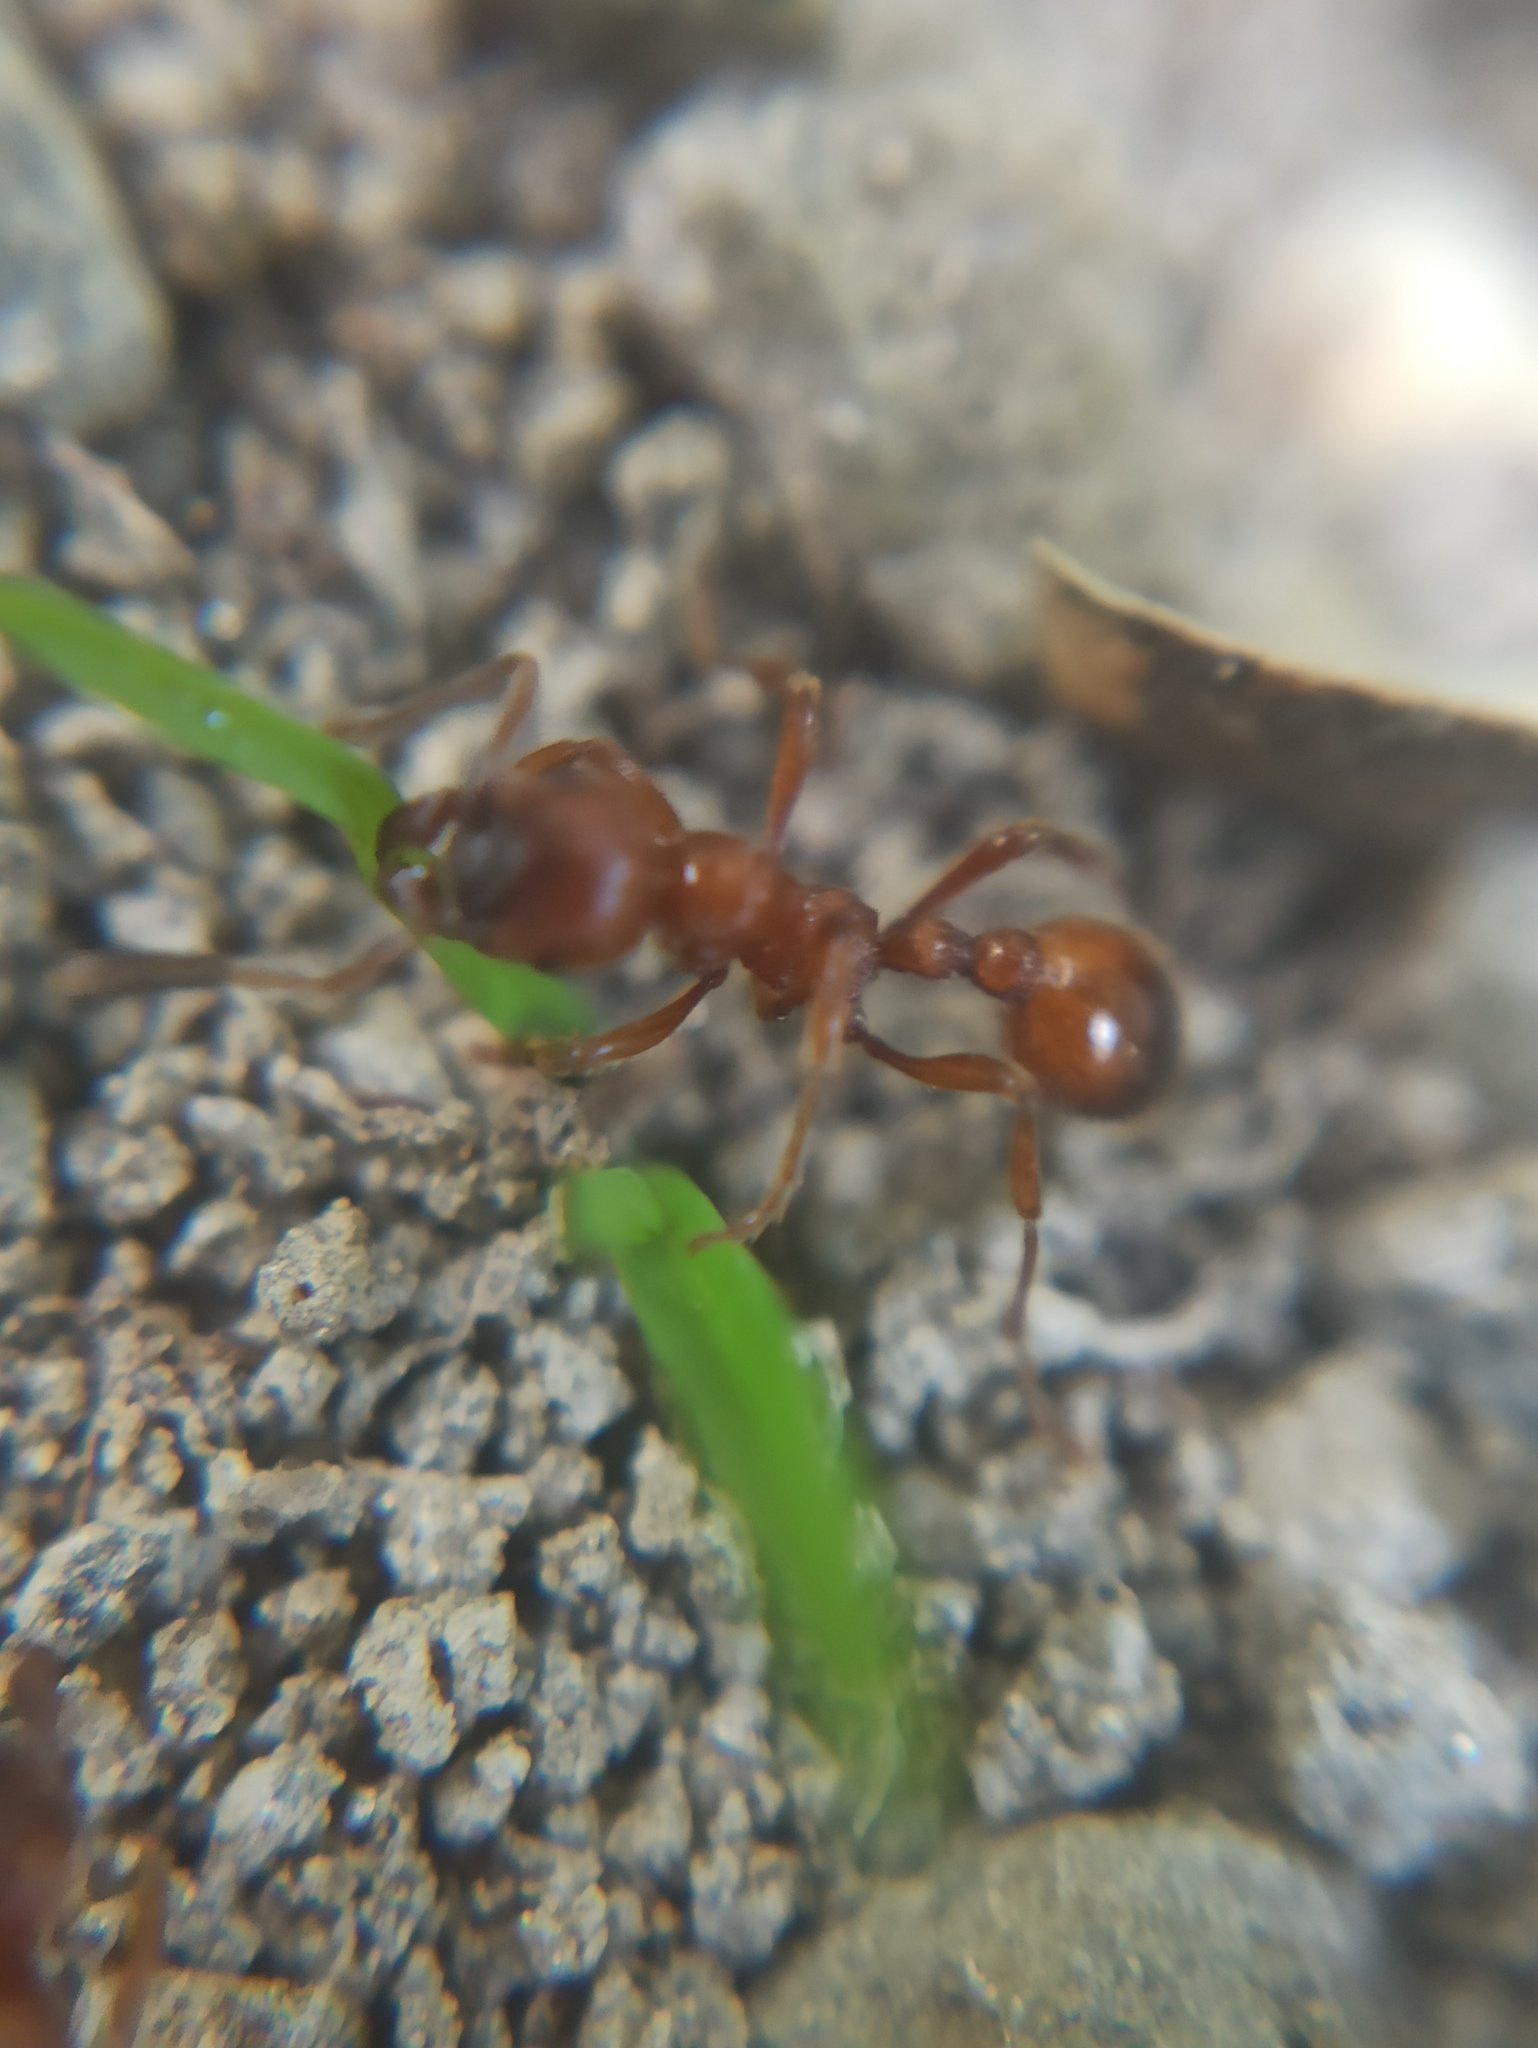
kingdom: Animalia
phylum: Arthropoda
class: Insecta
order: Hymenoptera
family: Formicidae
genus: Manica
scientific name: Manica rubida
